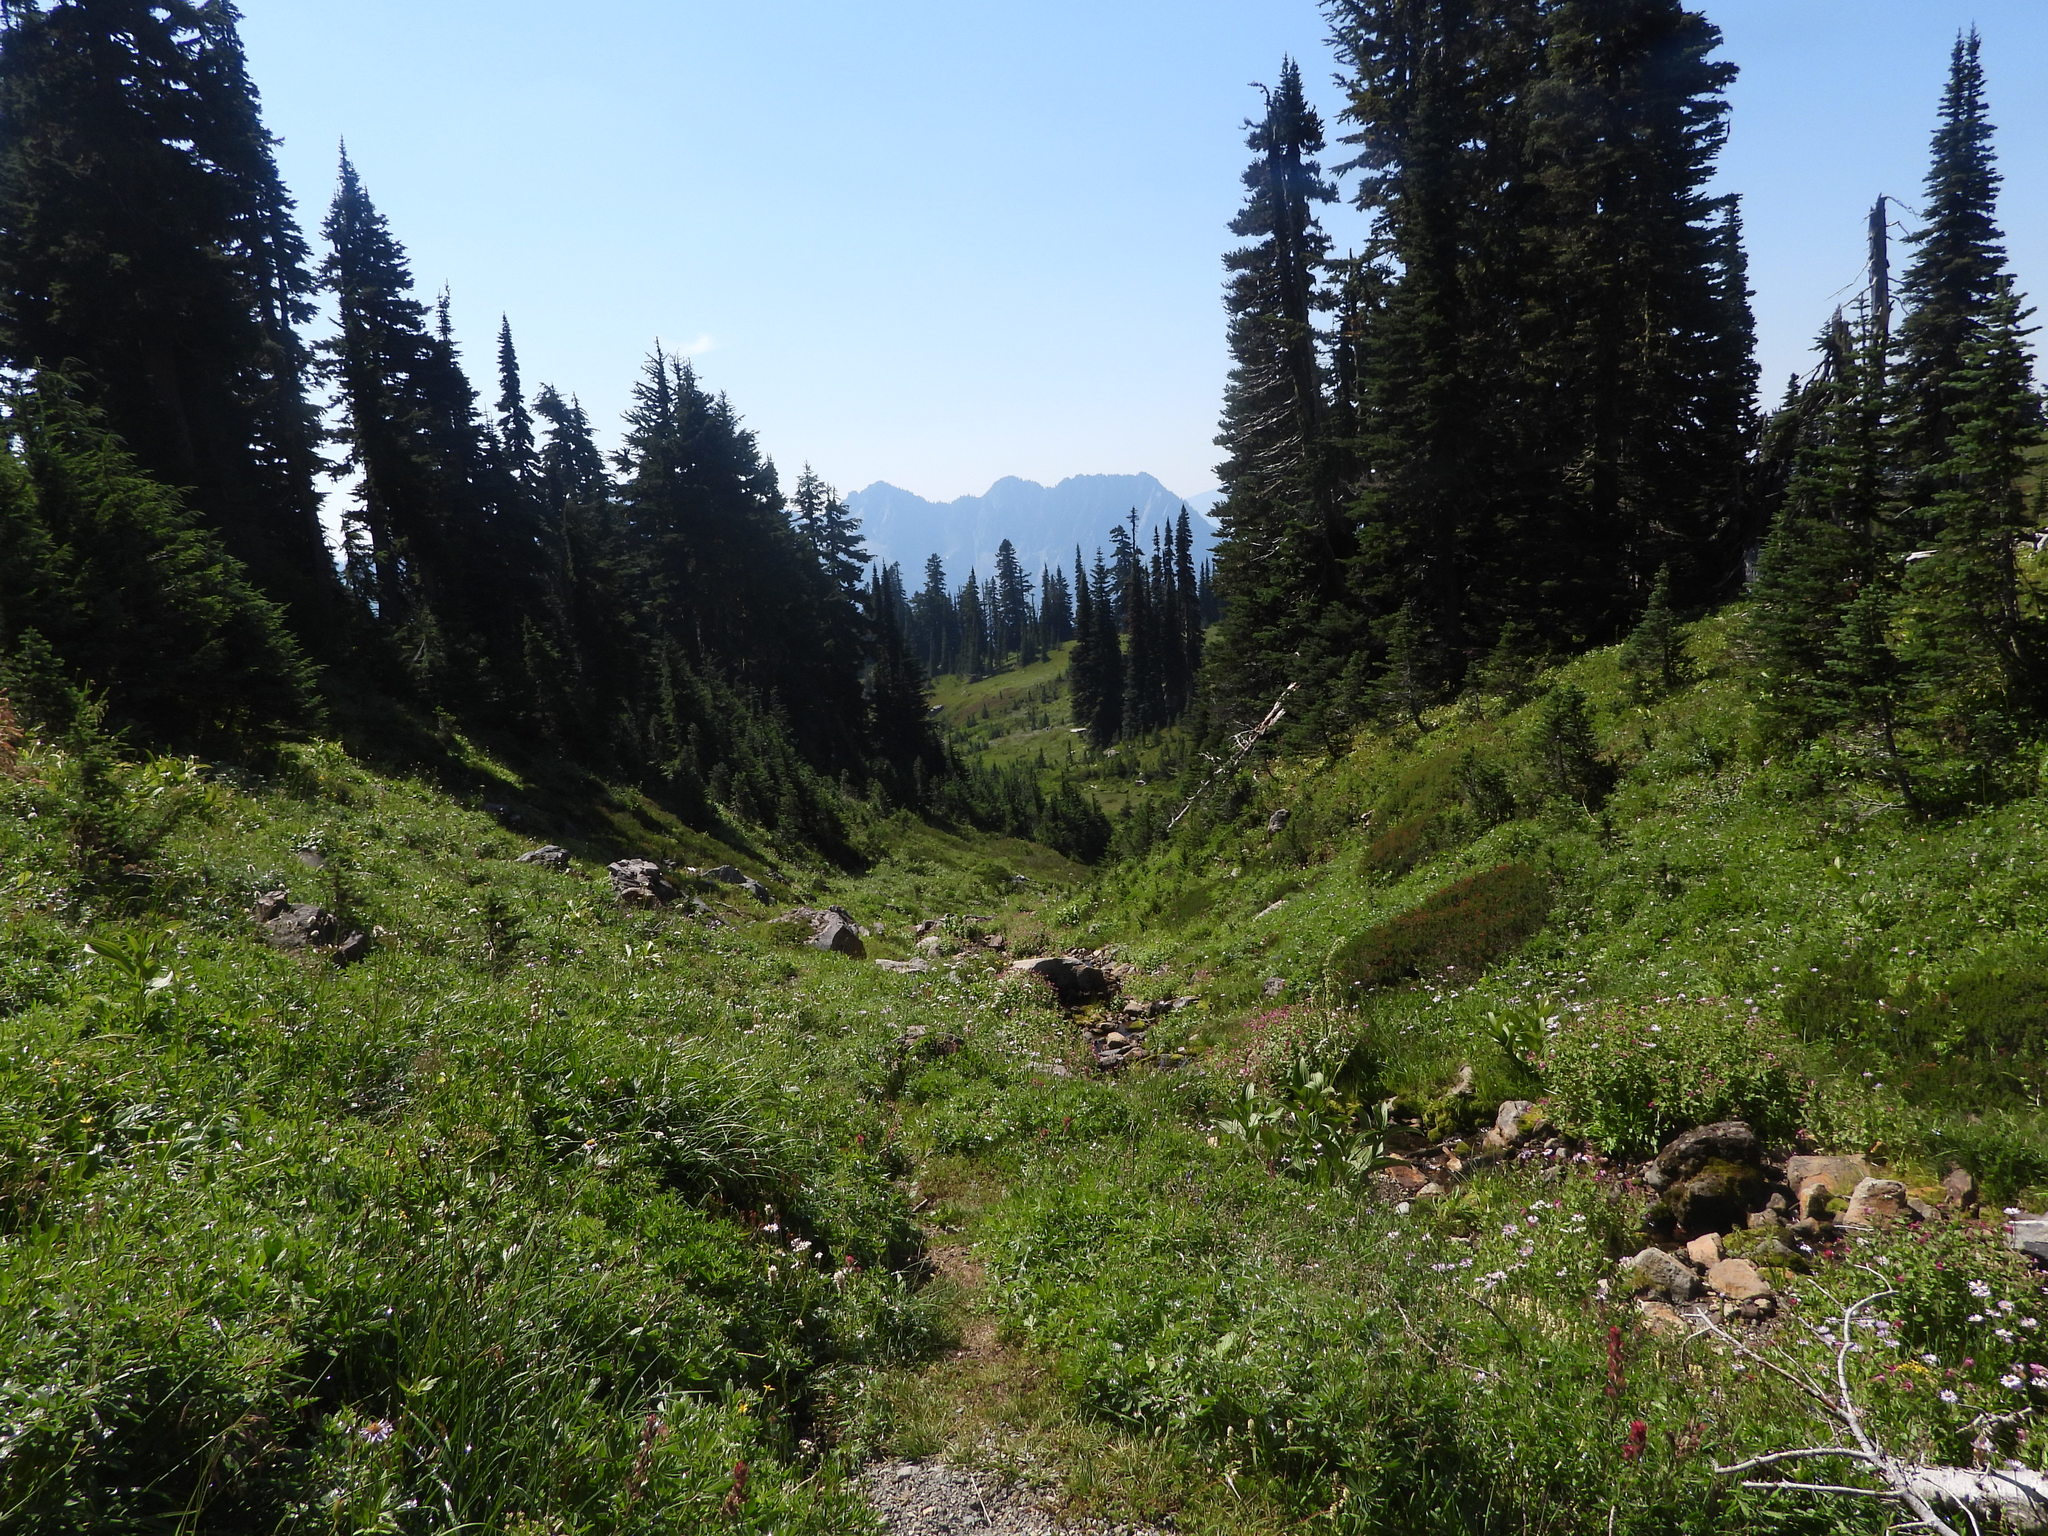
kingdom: Plantae
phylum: Tracheophyta
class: Pinopsida
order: Pinales
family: Pinaceae
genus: Abies
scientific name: Abies lasiocarpa
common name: Subalpine fir
